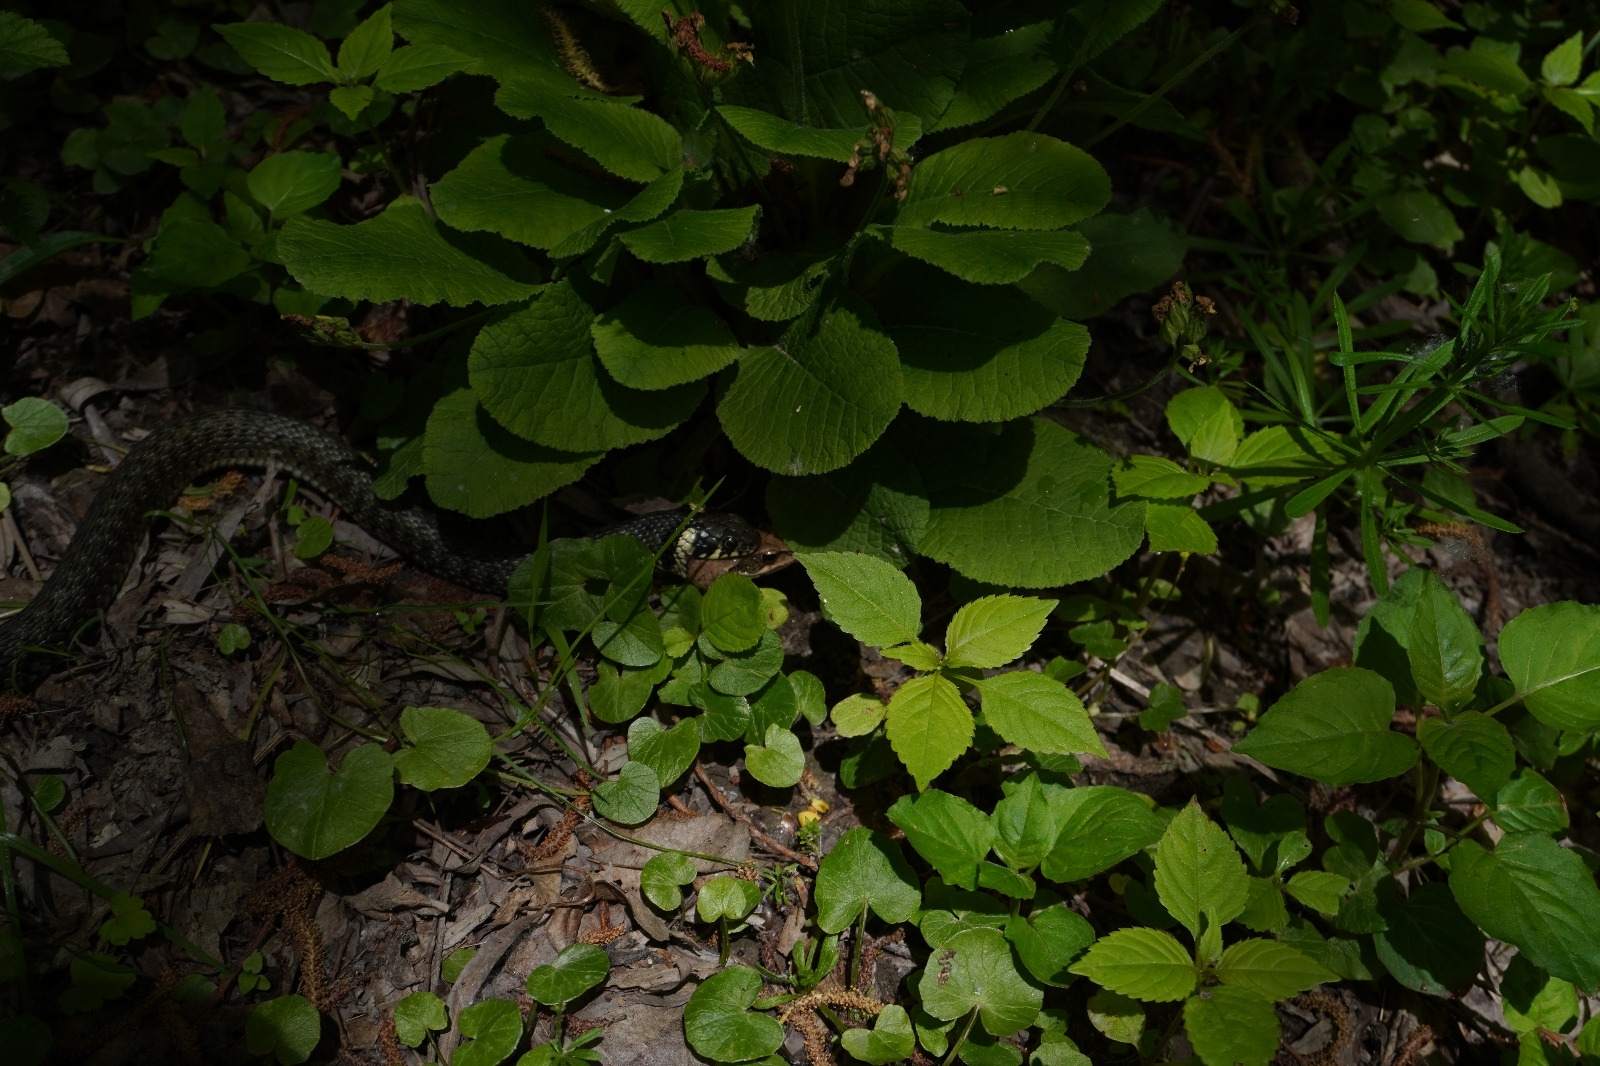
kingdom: Animalia
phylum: Chordata
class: Squamata
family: Colubridae
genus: Natrix
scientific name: Natrix natrix
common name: Grass snake
